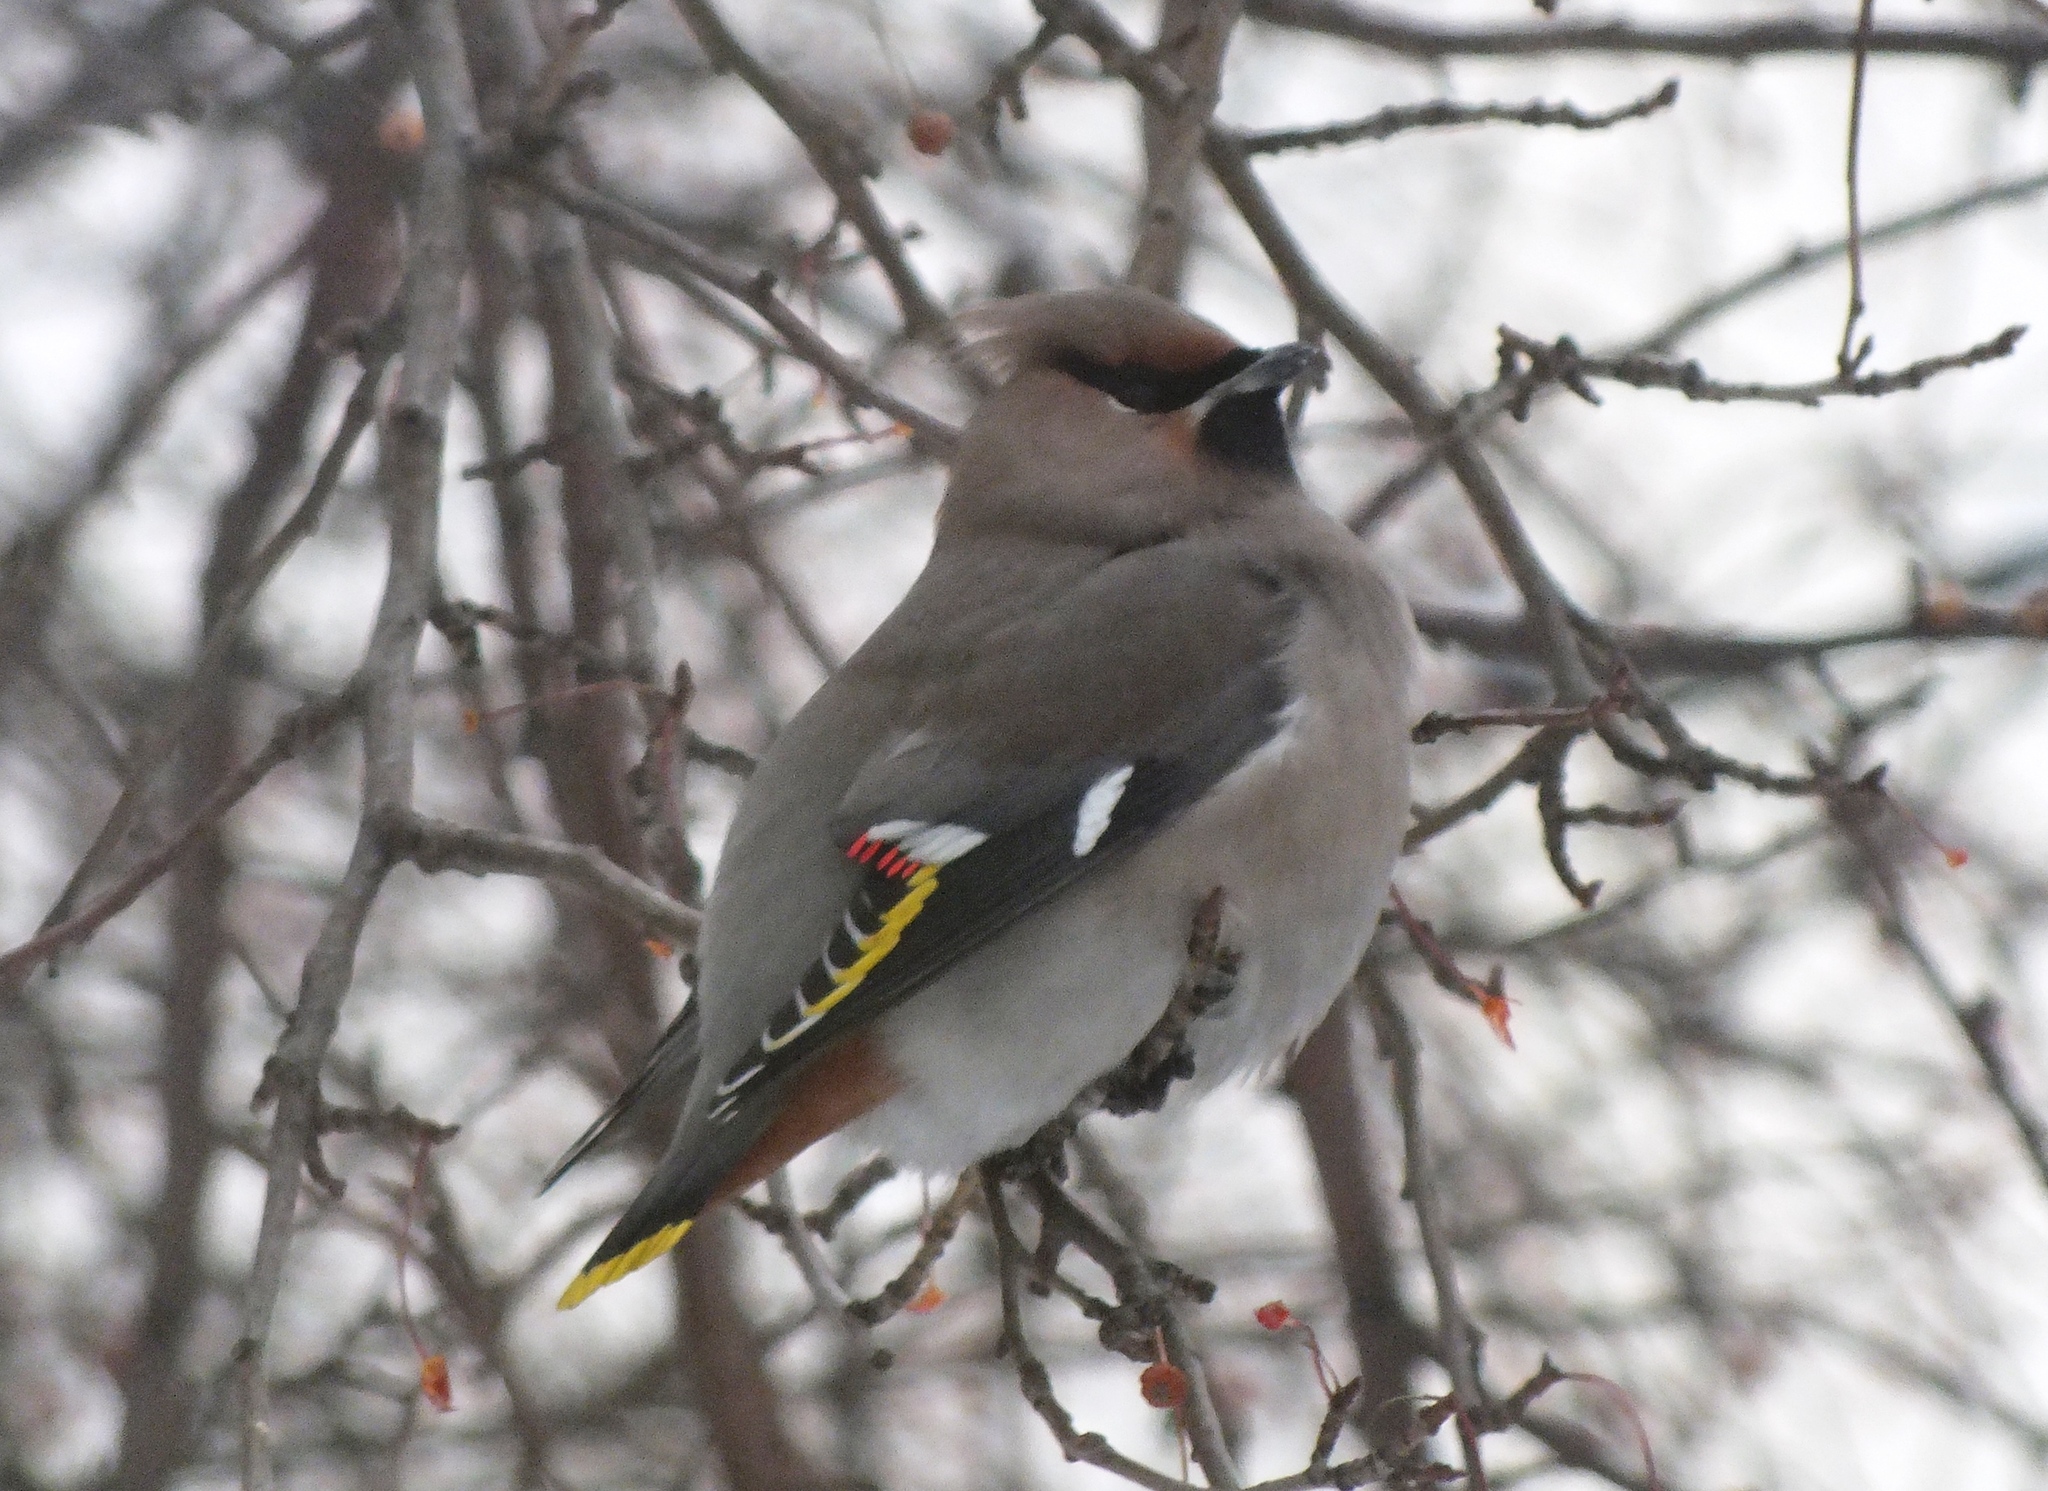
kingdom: Animalia
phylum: Chordata
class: Aves
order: Passeriformes
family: Bombycillidae
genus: Bombycilla
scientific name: Bombycilla garrulus
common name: Bohemian waxwing
